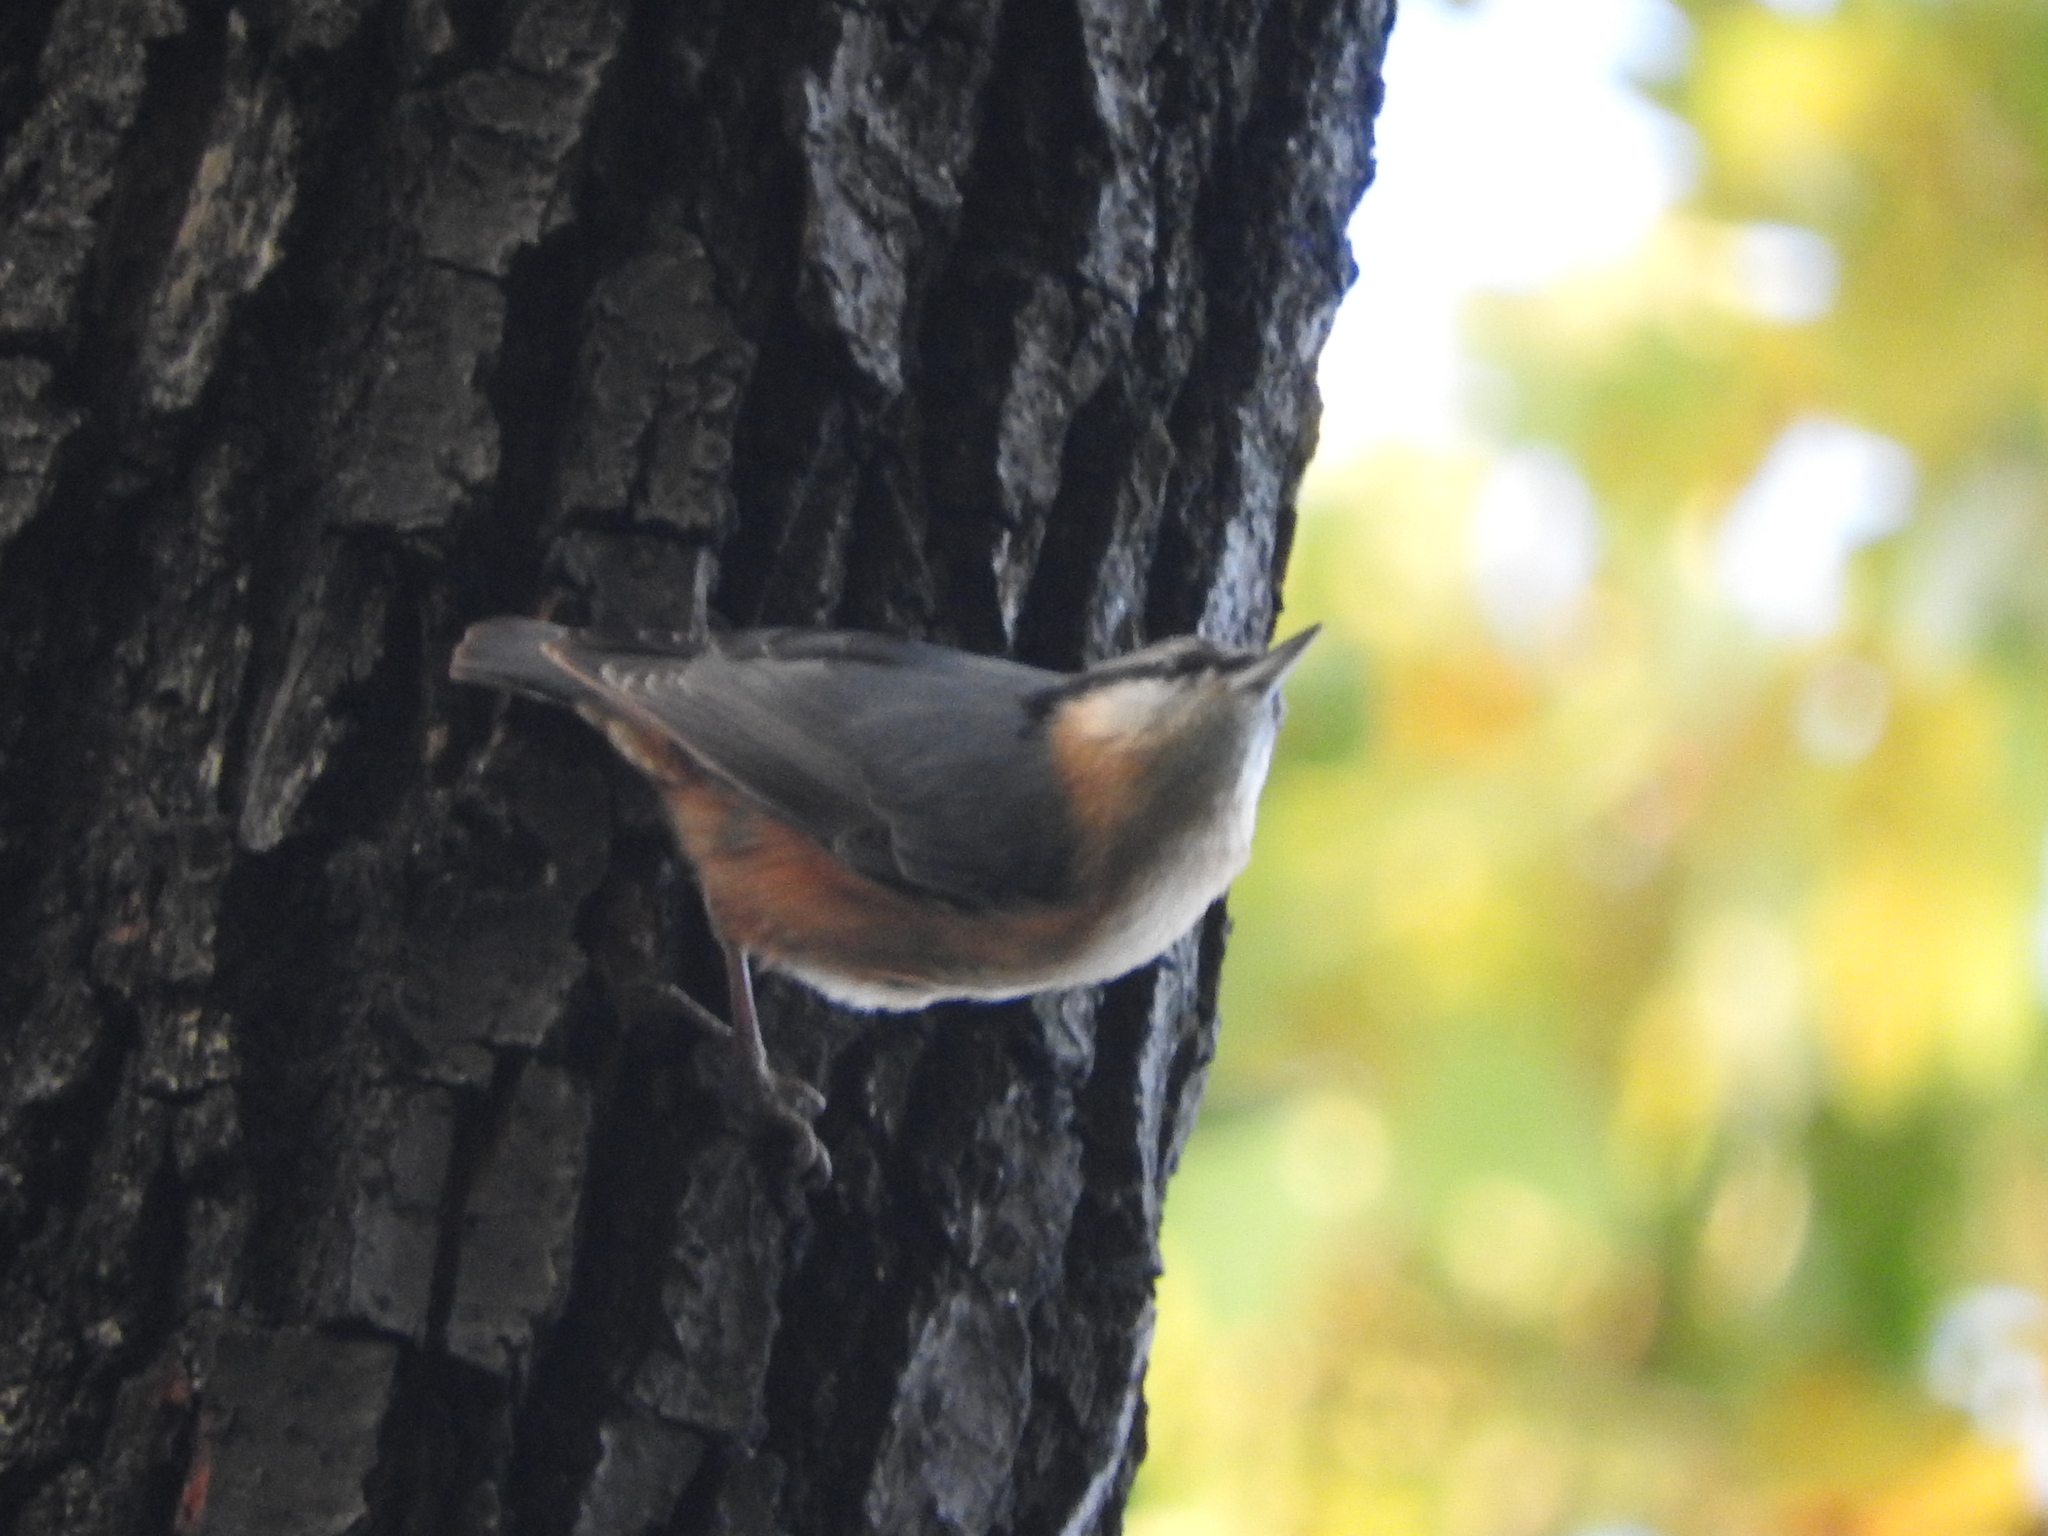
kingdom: Animalia
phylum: Chordata
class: Aves
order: Passeriformes
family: Sittidae
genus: Sitta
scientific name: Sitta europaea
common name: Eurasian nuthatch
